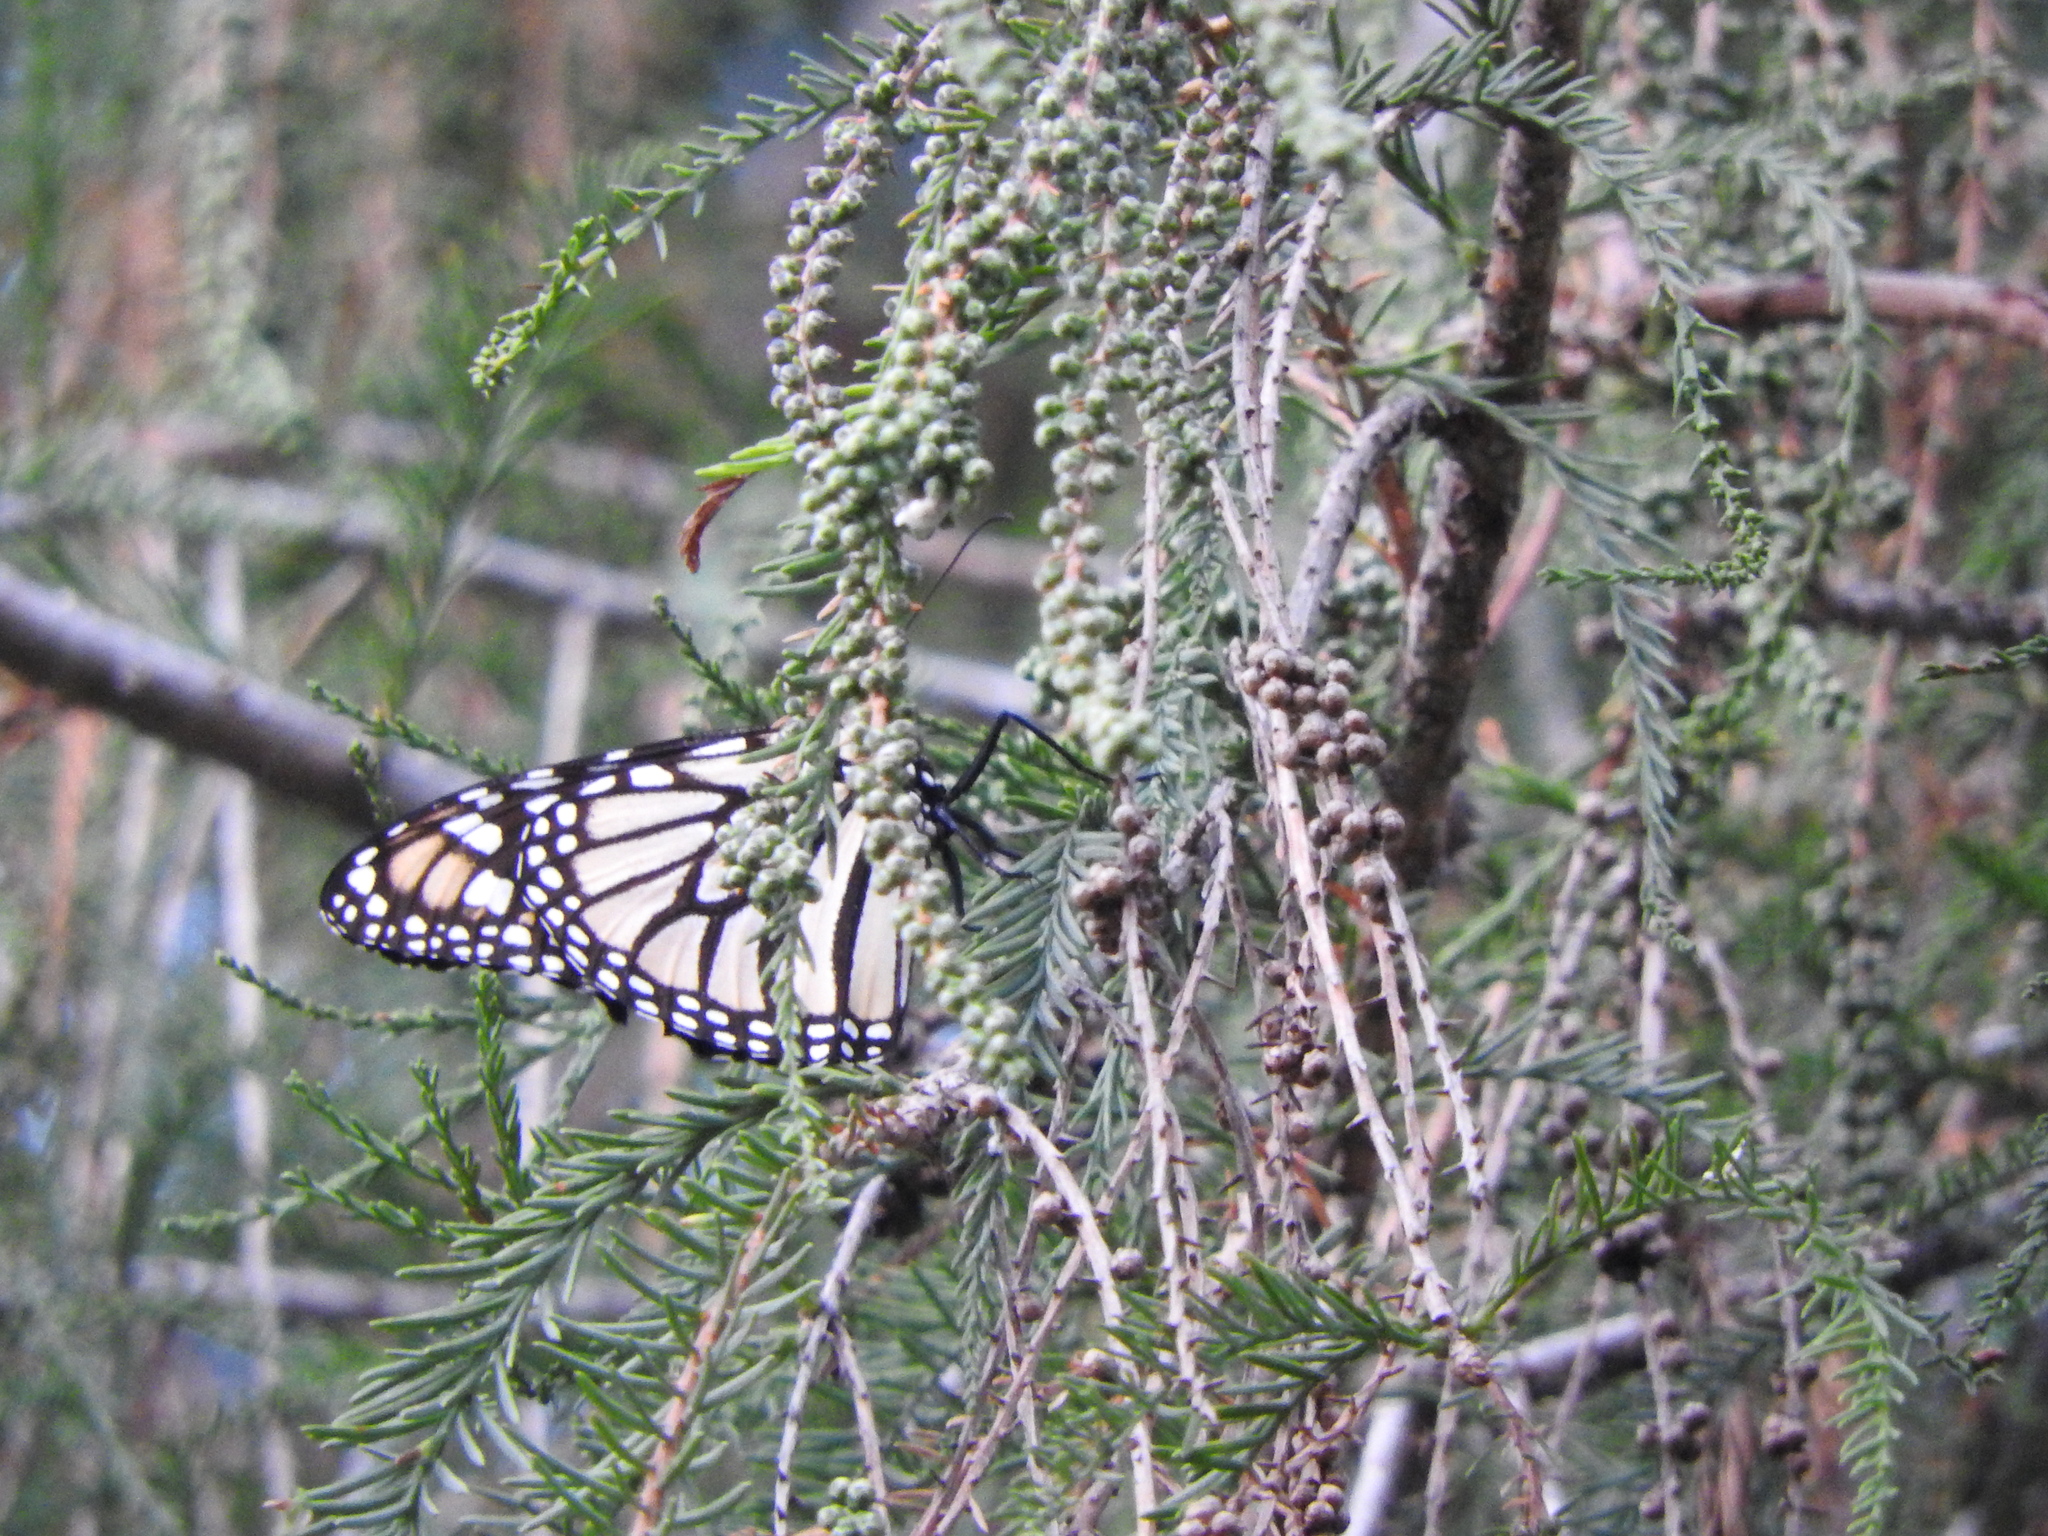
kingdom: Animalia
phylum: Arthropoda
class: Insecta
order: Lepidoptera
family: Nymphalidae
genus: Danaus
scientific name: Danaus plexippus
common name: Monarch
